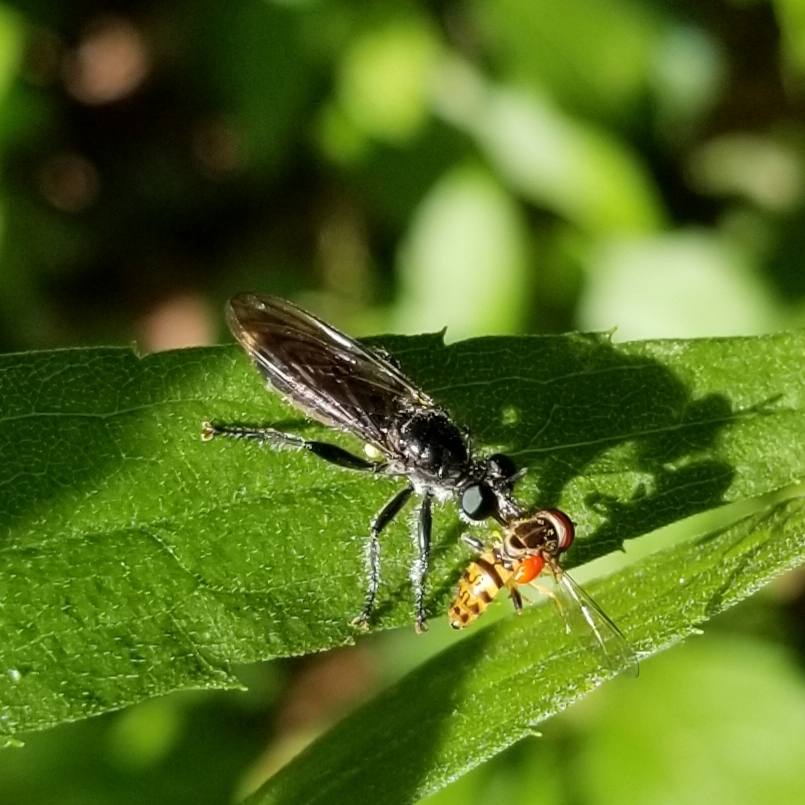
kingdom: Animalia
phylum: Arthropoda
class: Insecta
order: Diptera
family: Syrphidae
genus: Toxomerus
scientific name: Toxomerus geminatus
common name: Eastern calligrapher
